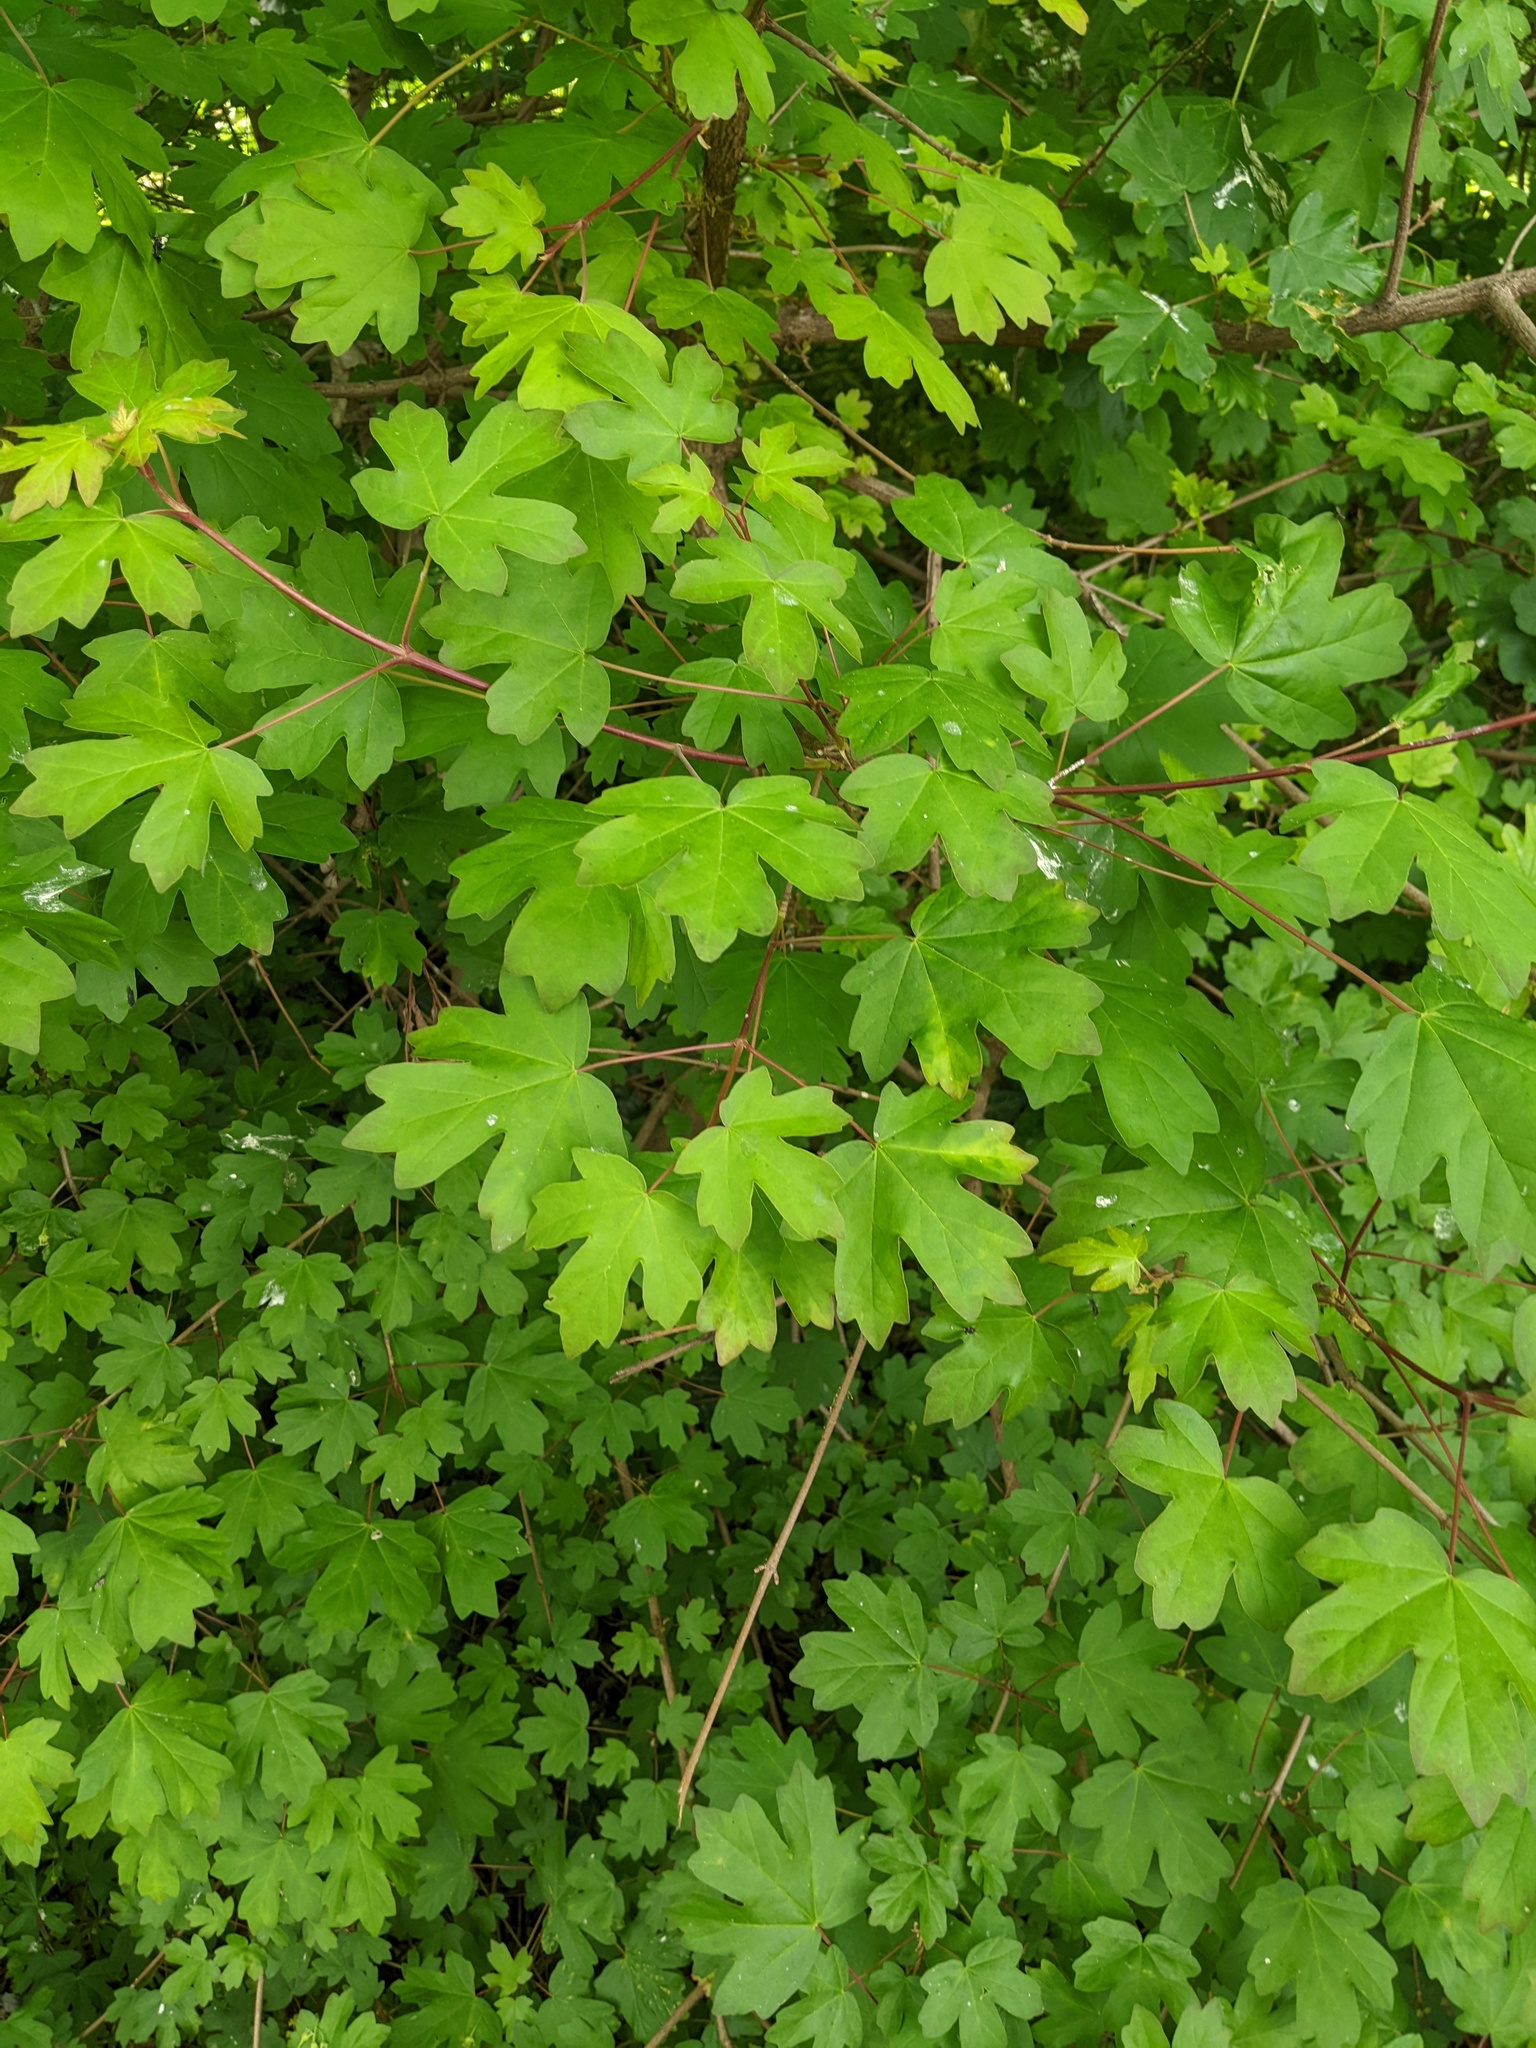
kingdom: Plantae
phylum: Tracheophyta
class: Magnoliopsida
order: Sapindales
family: Sapindaceae
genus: Acer
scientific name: Acer campestre
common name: Field maple
